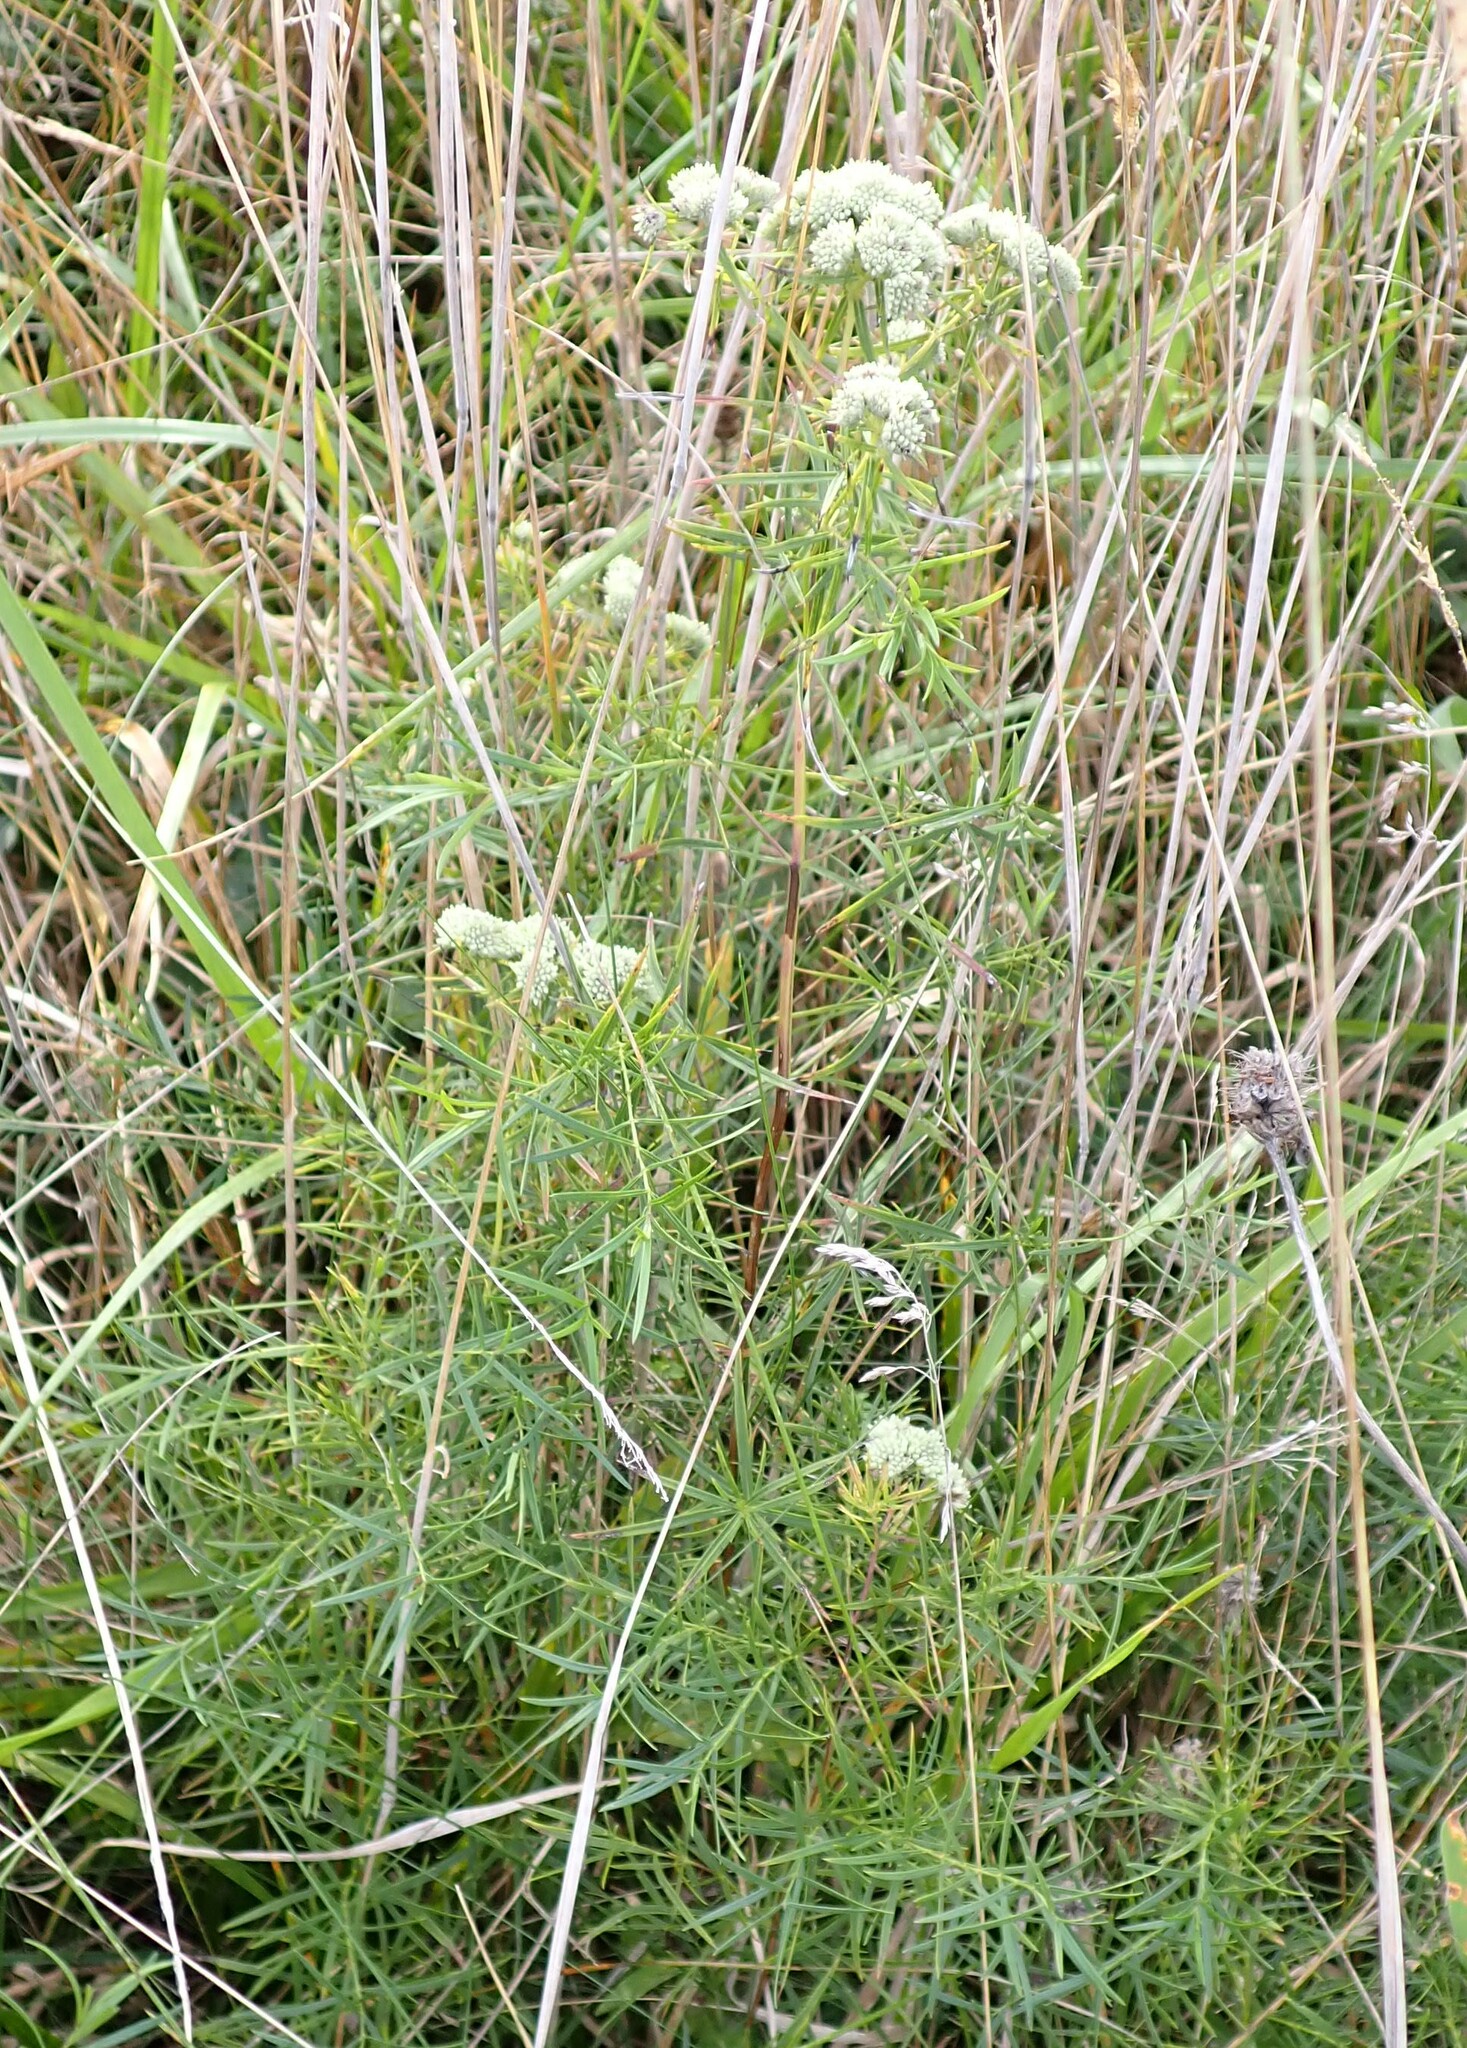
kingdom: Plantae
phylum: Tracheophyta
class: Magnoliopsida
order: Lamiales
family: Lamiaceae
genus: Pycnanthemum
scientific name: Pycnanthemum tenuifolium
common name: Narrow-leaf mountain-mint
